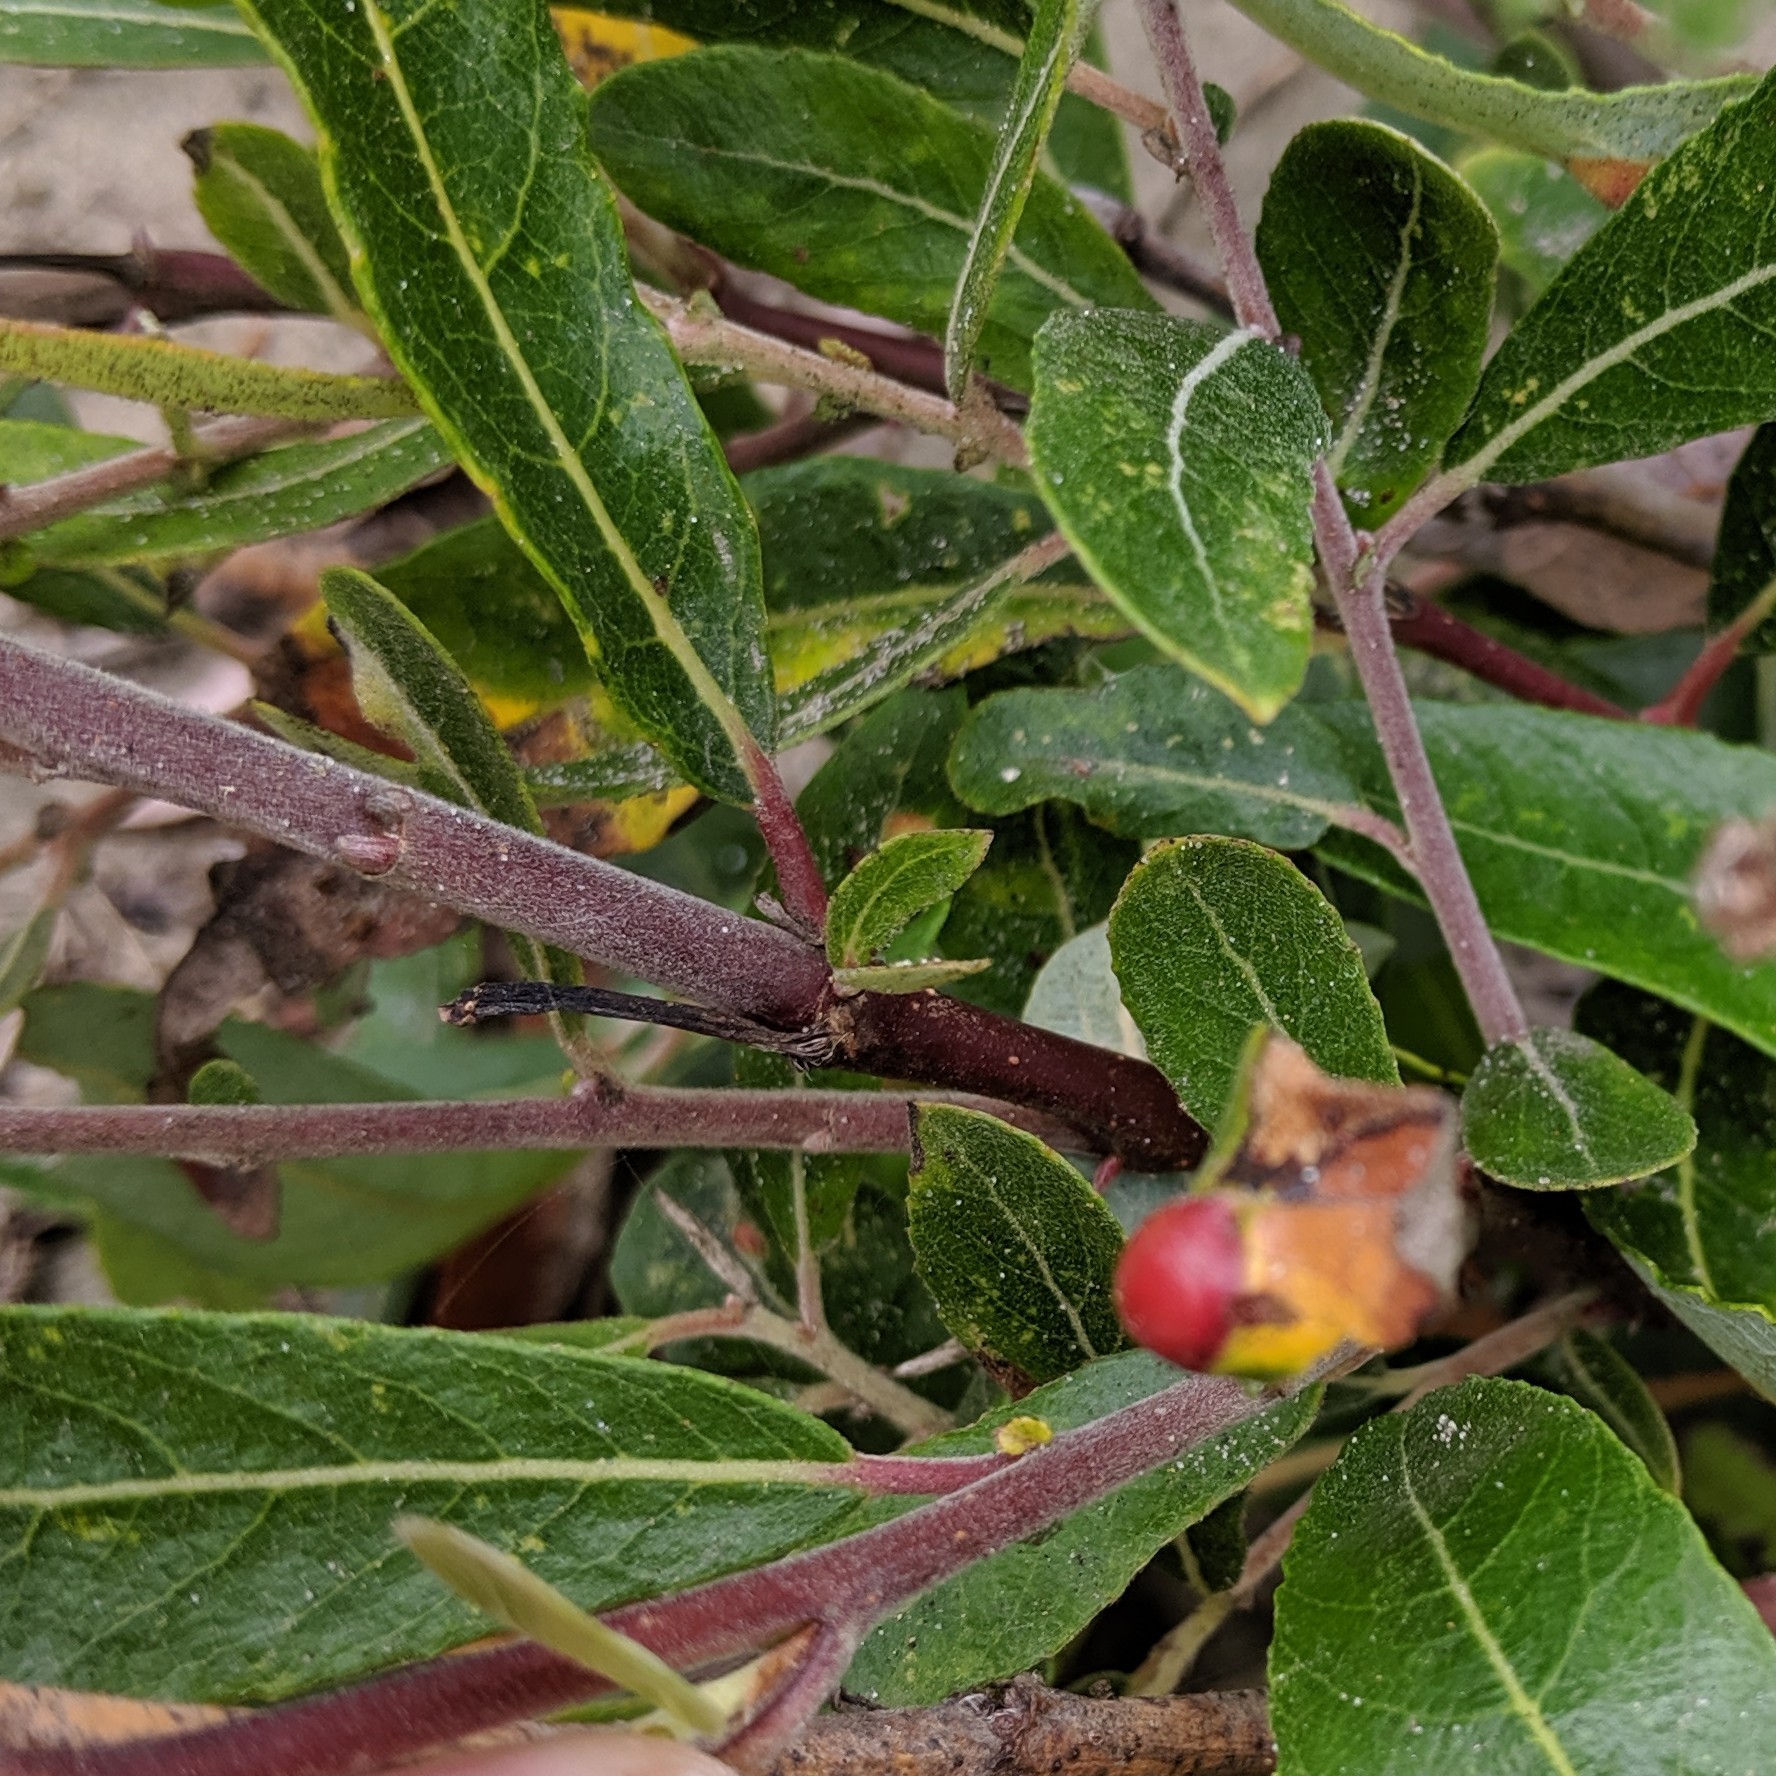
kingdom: Animalia
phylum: Arthropoda
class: Insecta
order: Hymenoptera
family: Tenthredinidae
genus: Euura
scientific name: Euura
